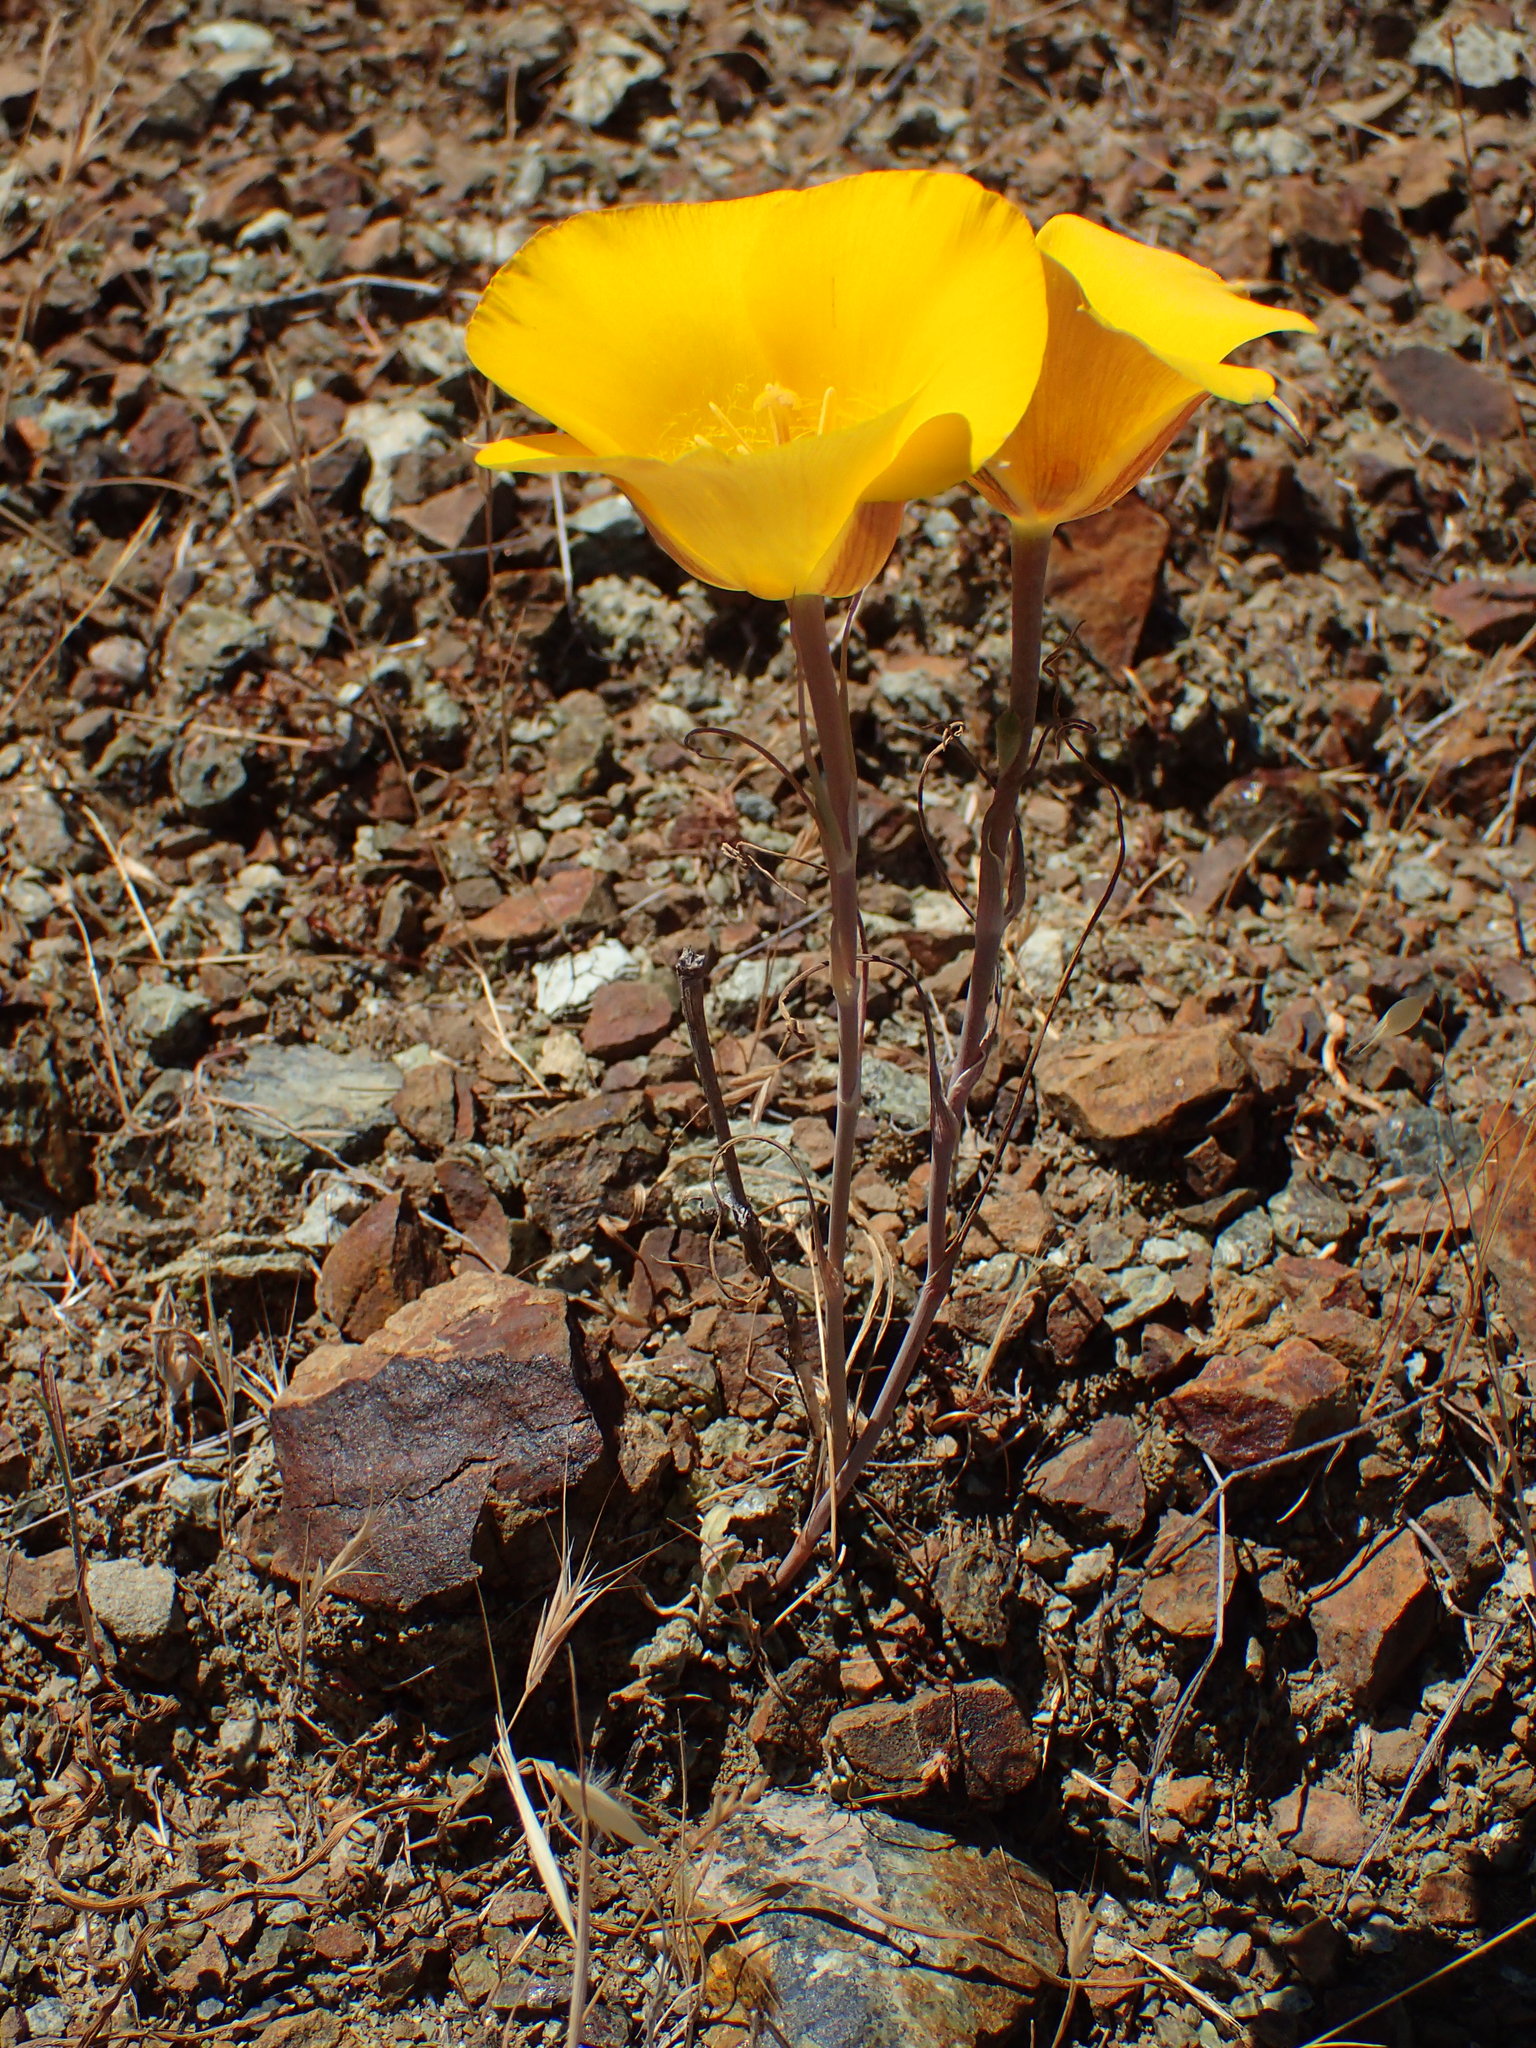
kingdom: Plantae
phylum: Tracheophyta
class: Liliopsida
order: Liliales
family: Liliaceae
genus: Calochortus
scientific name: Calochortus clavatus
